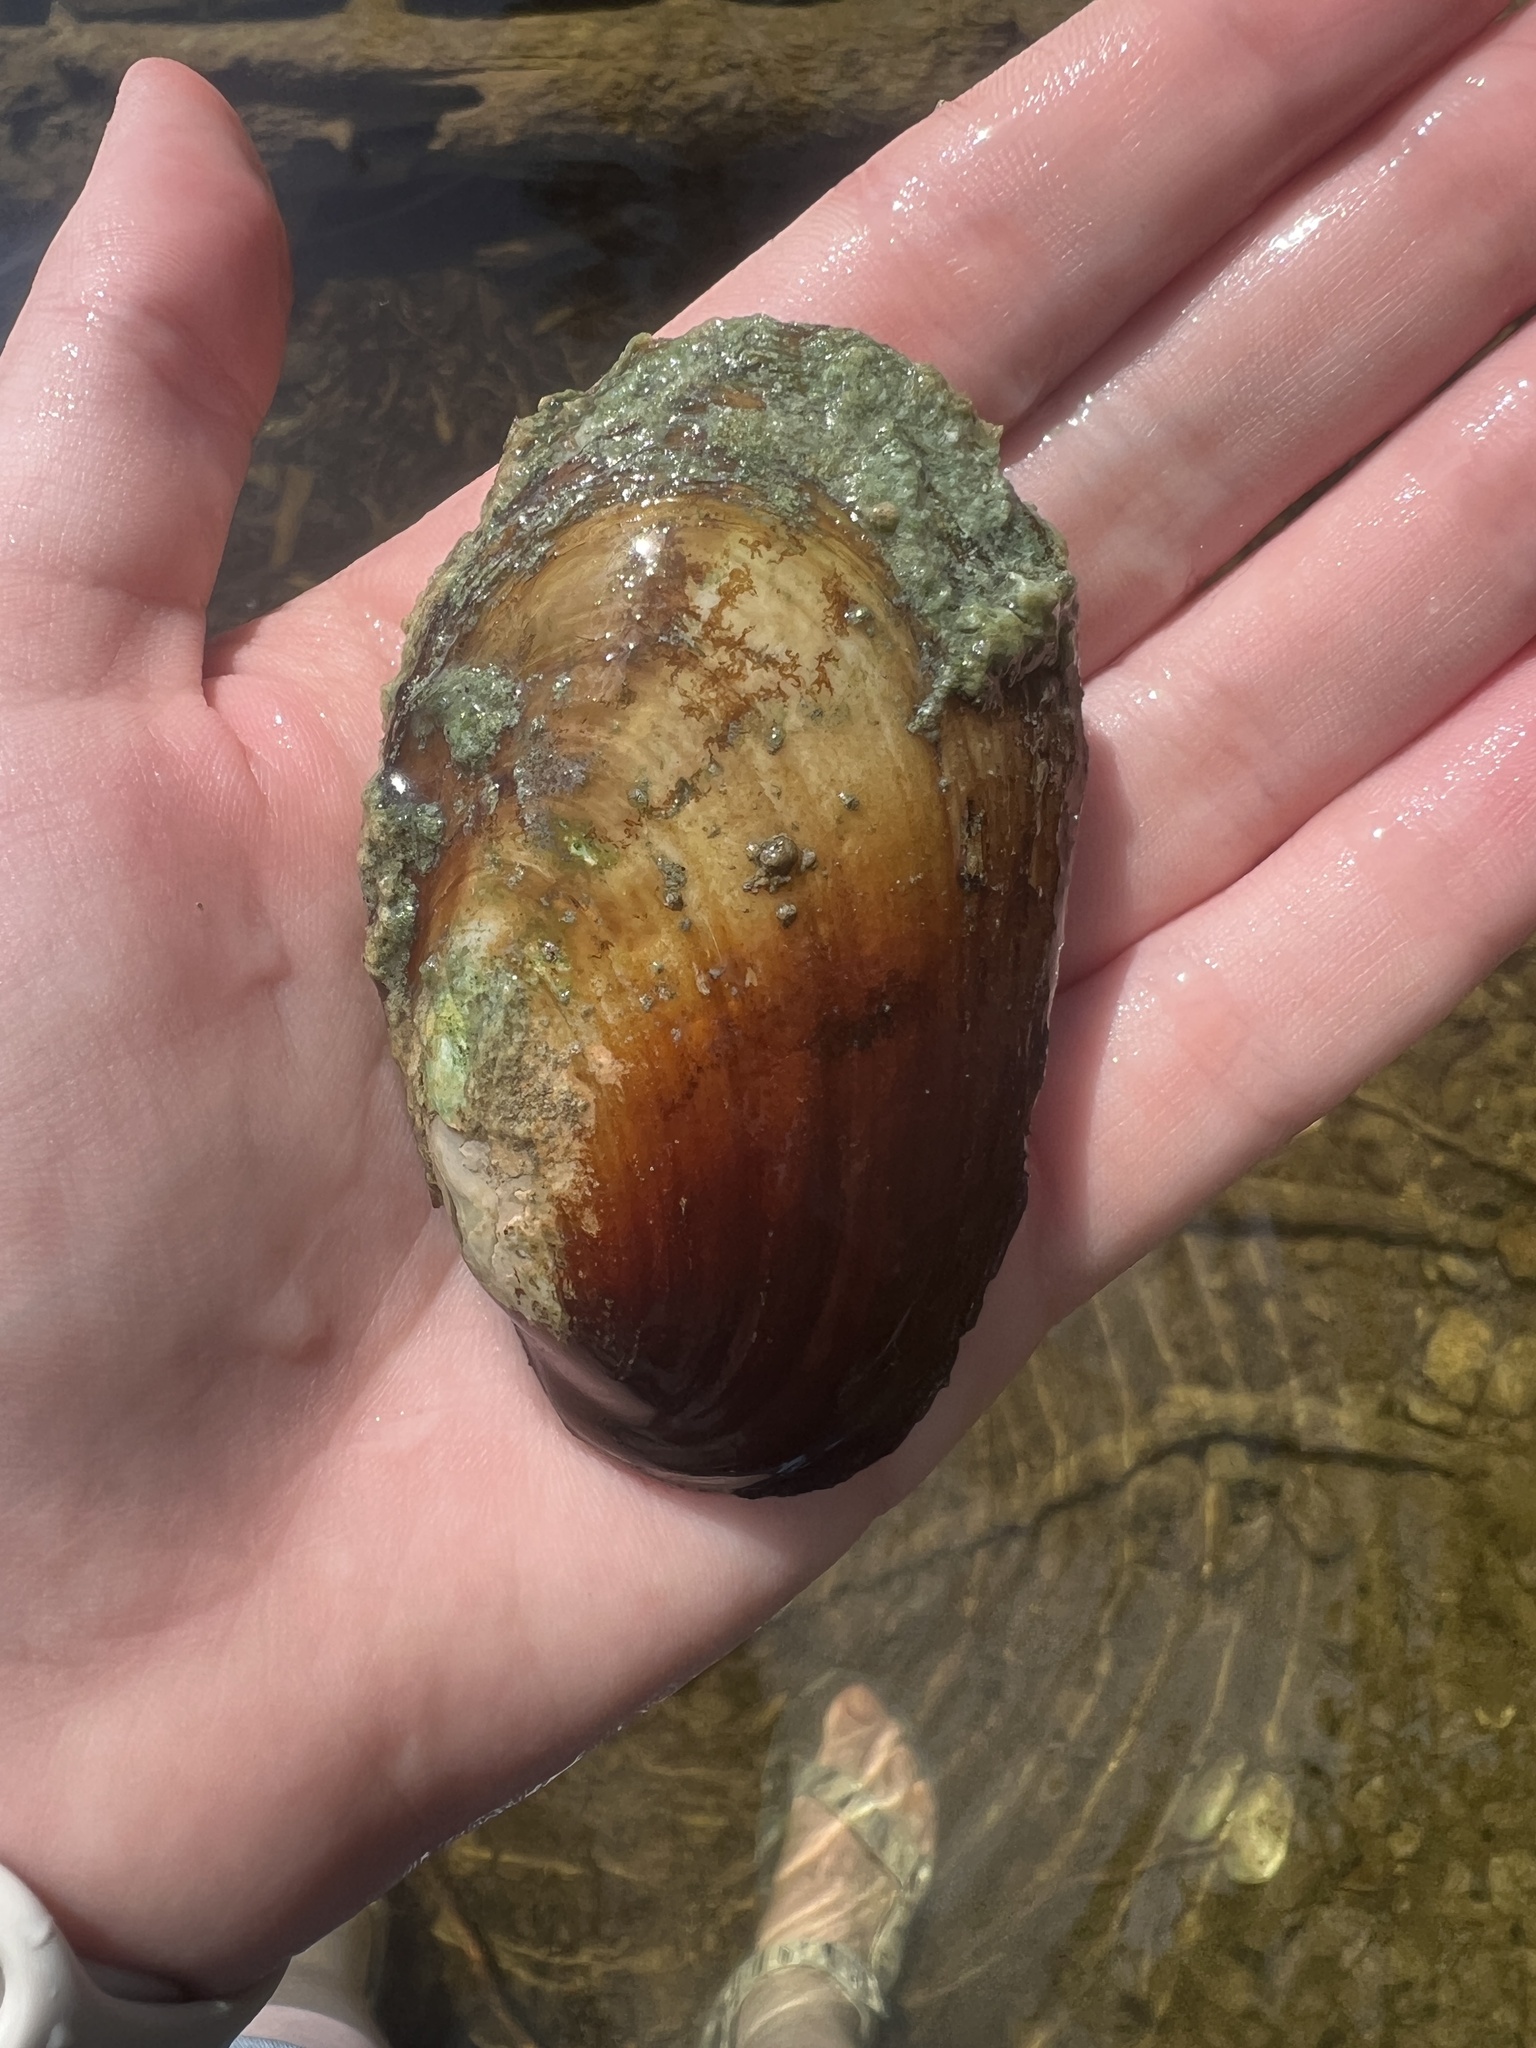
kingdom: Animalia
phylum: Mollusca
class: Bivalvia
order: Unionida
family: Unionidae
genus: Lampsilis
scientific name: Lampsilis siliquoidea
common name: Fatmucket
